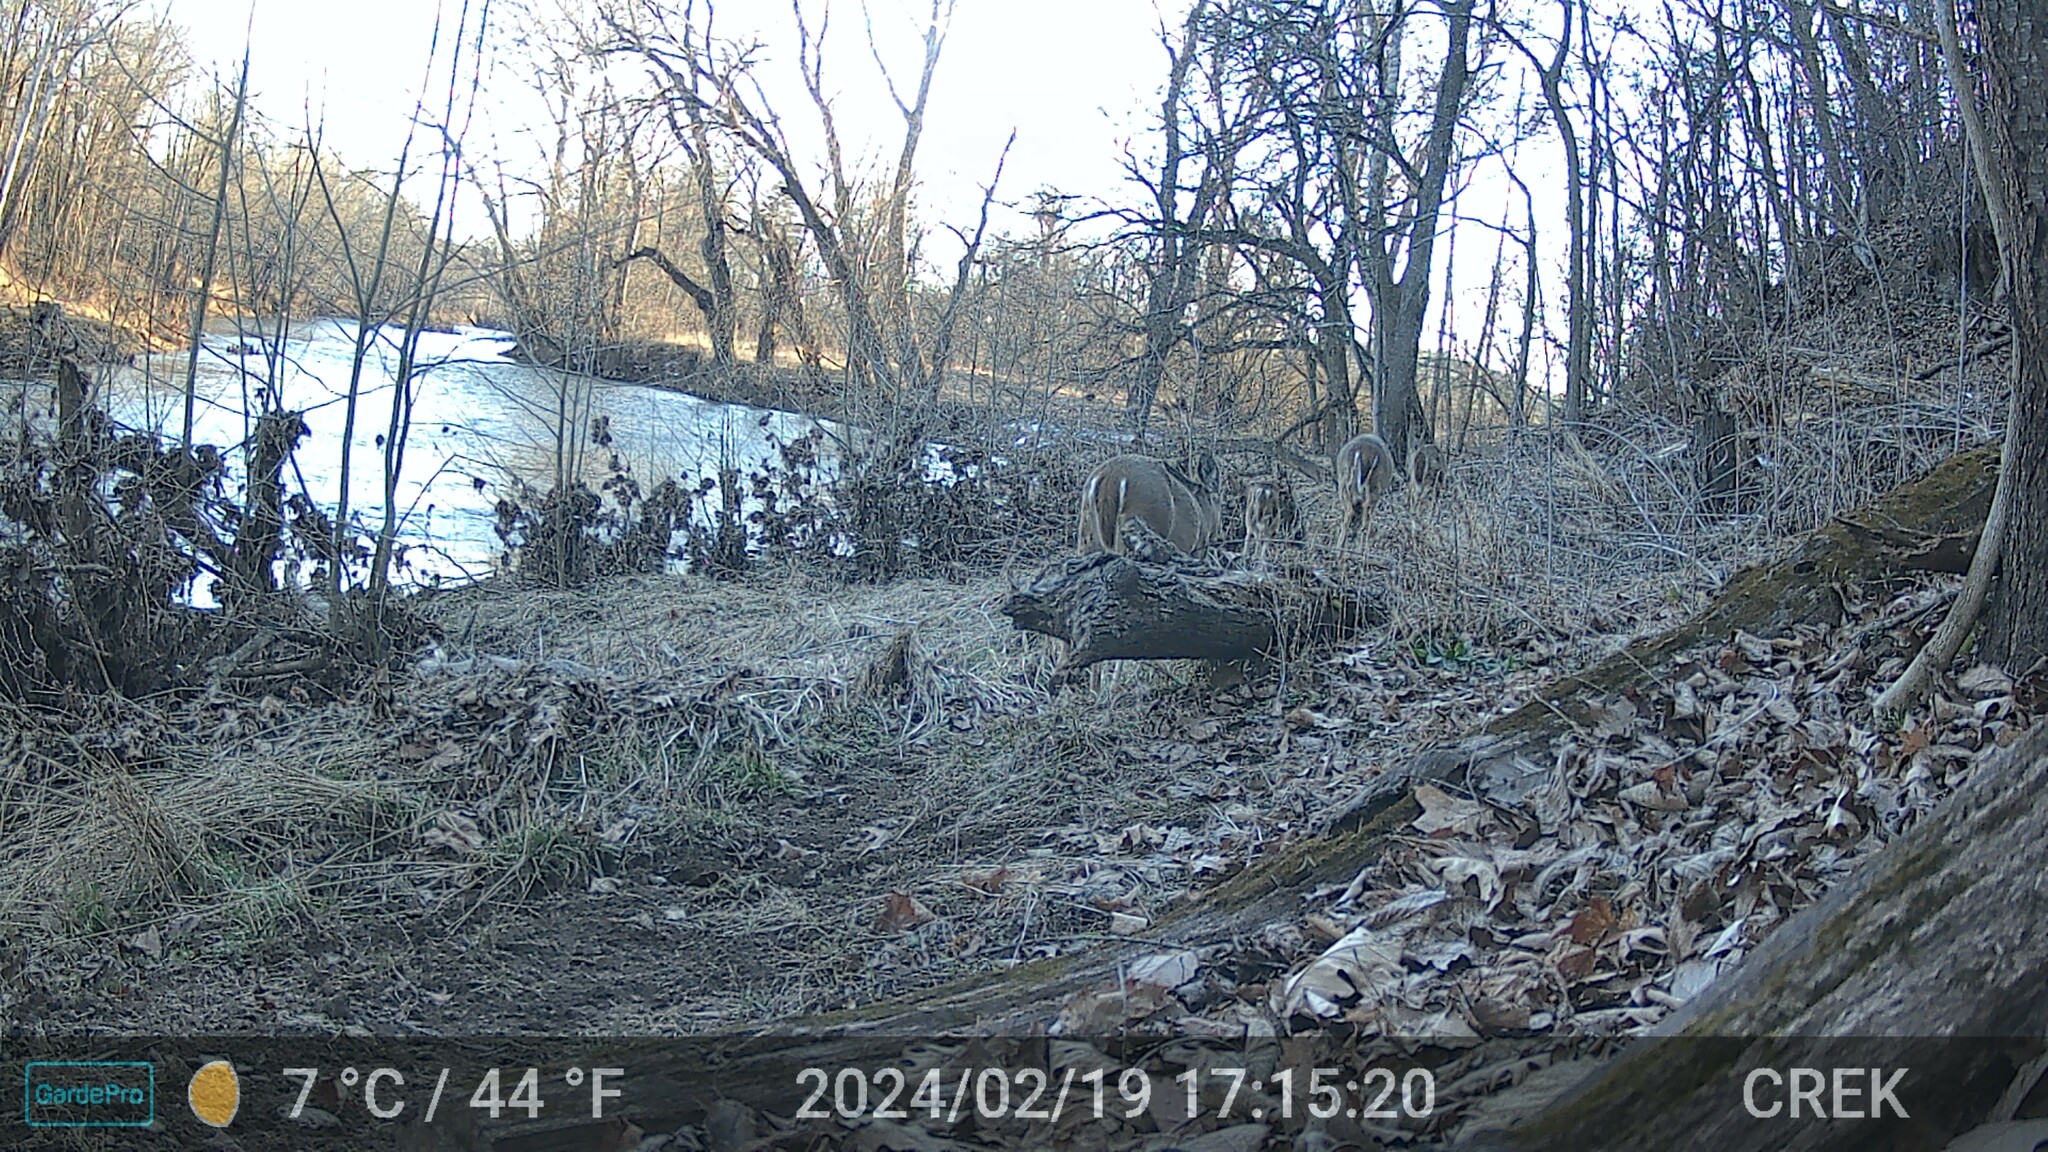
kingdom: Animalia
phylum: Chordata
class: Mammalia
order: Artiodactyla
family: Cervidae
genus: Odocoileus
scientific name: Odocoileus virginianus
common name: White-tailed deer
